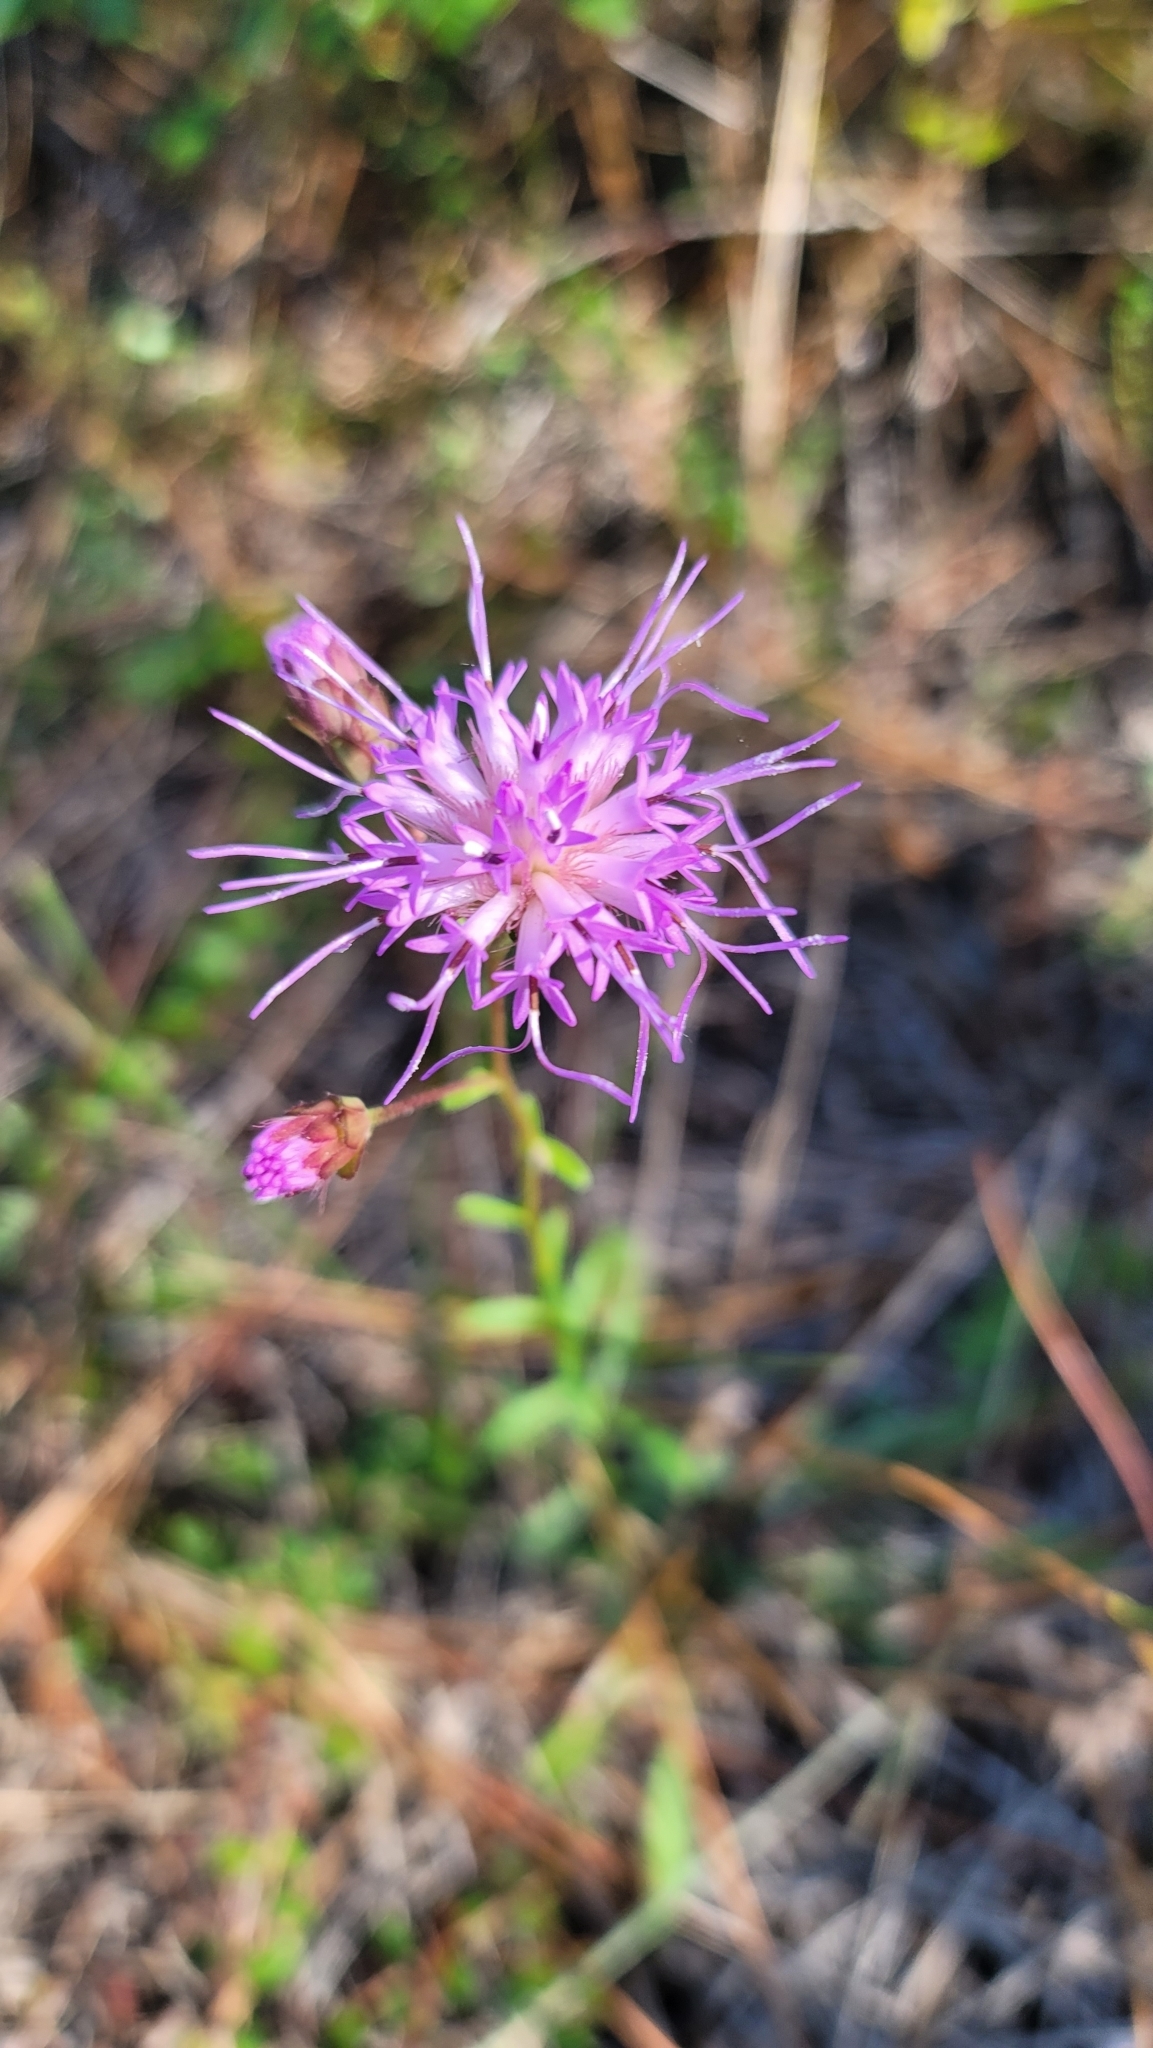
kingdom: Plantae
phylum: Tracheophyta
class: Magnoliopsida
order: Asterales
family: Asteraceae
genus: Carphephorus
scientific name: Carphephorus bellidifolius
